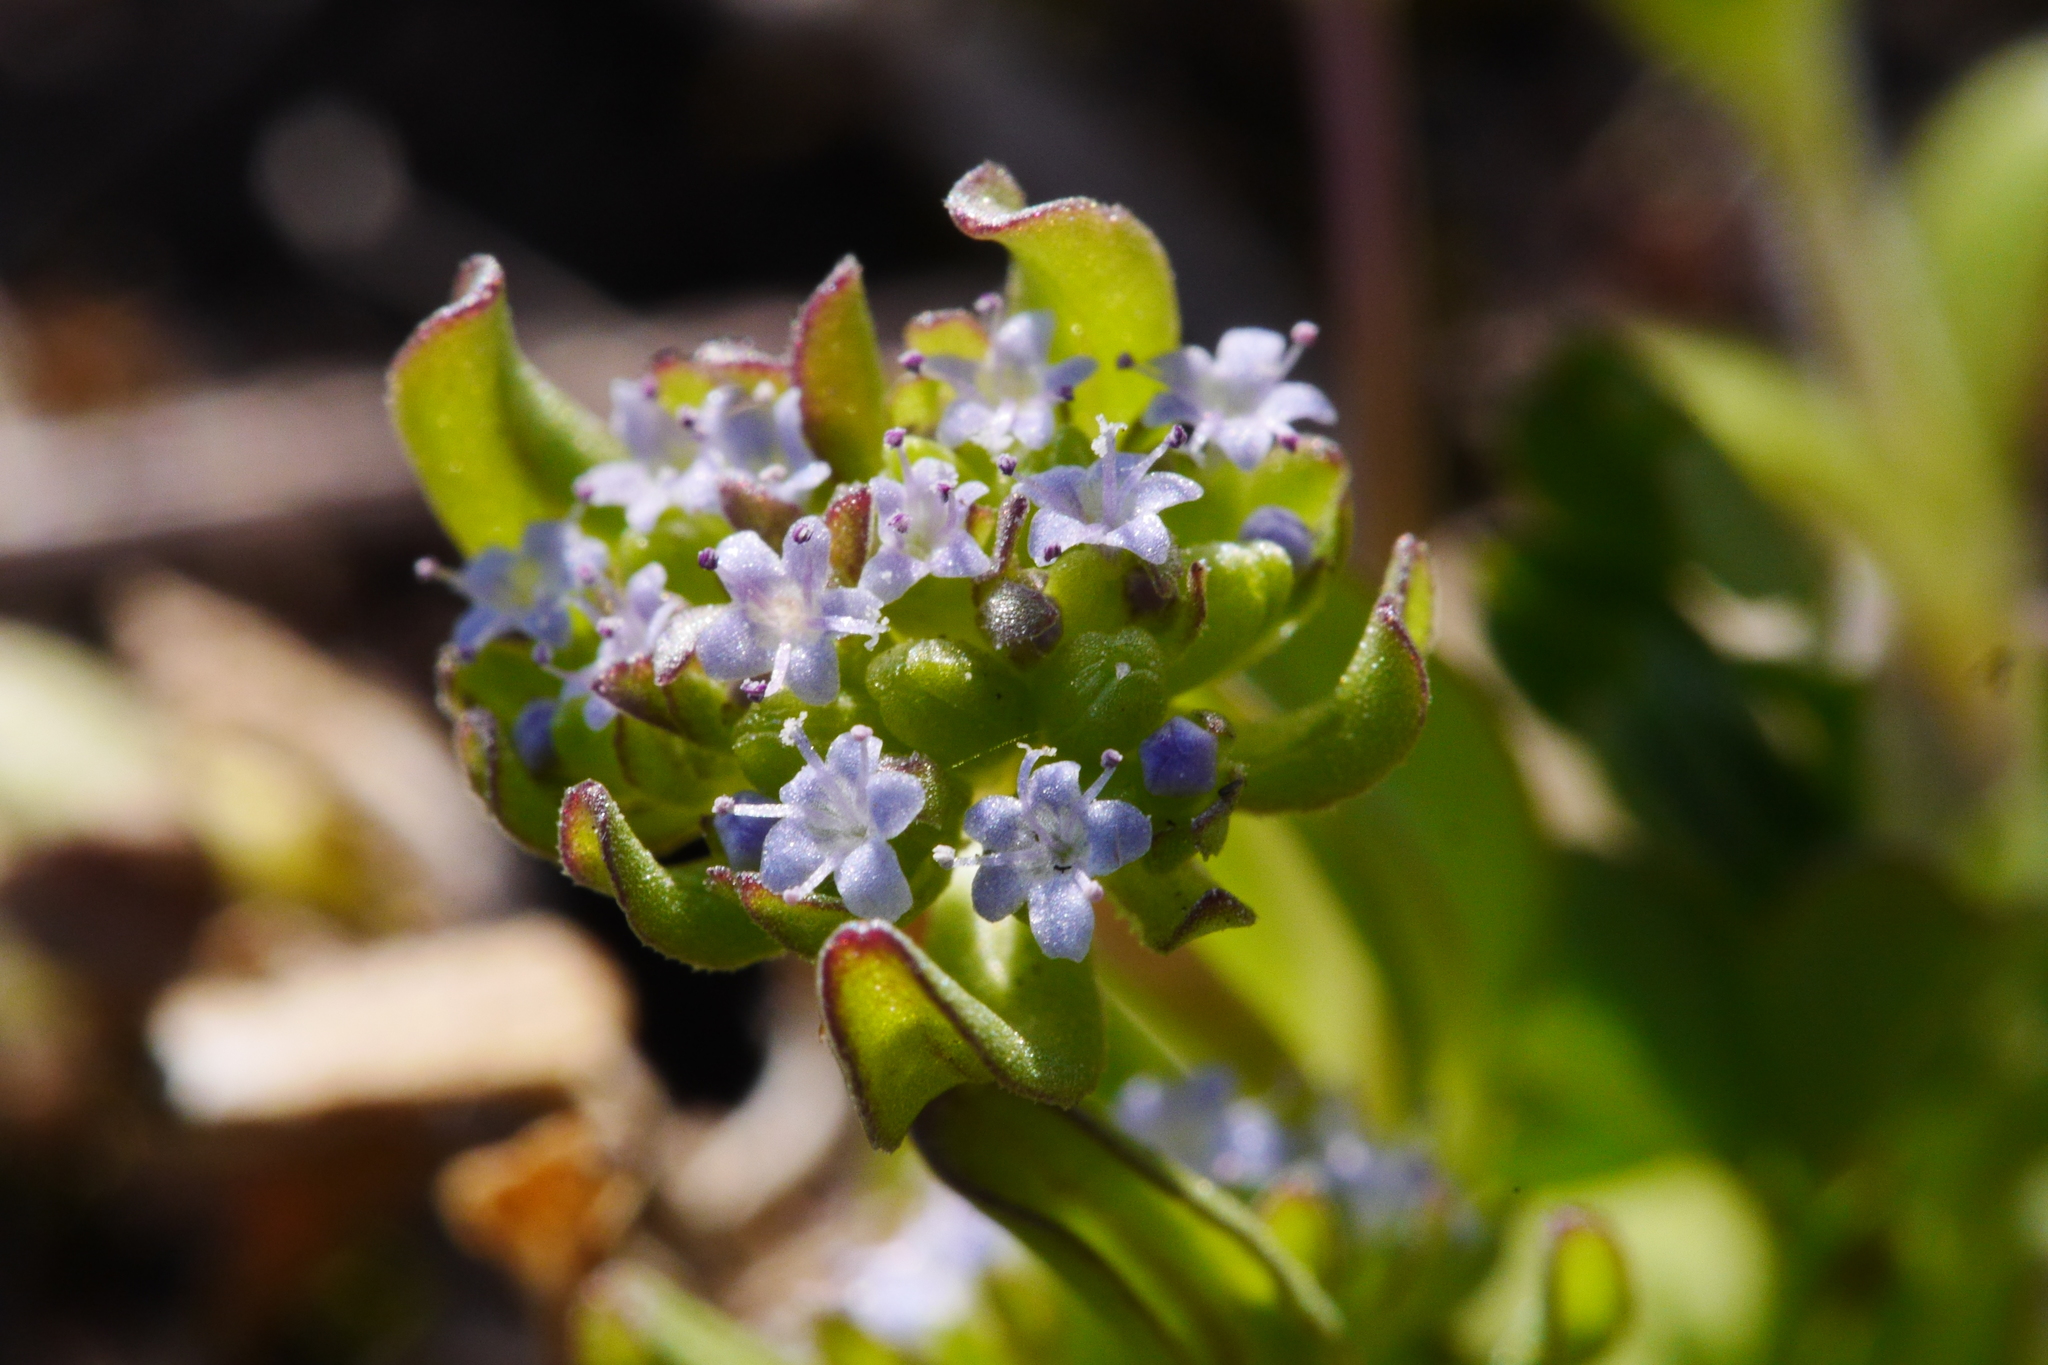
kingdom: Plantae
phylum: Tracheophyta
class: Magnoliopsida
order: Dipsacales
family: Caprifoliaceae
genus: Valerianella
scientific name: Valerianella locusta
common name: Common cornsalad
